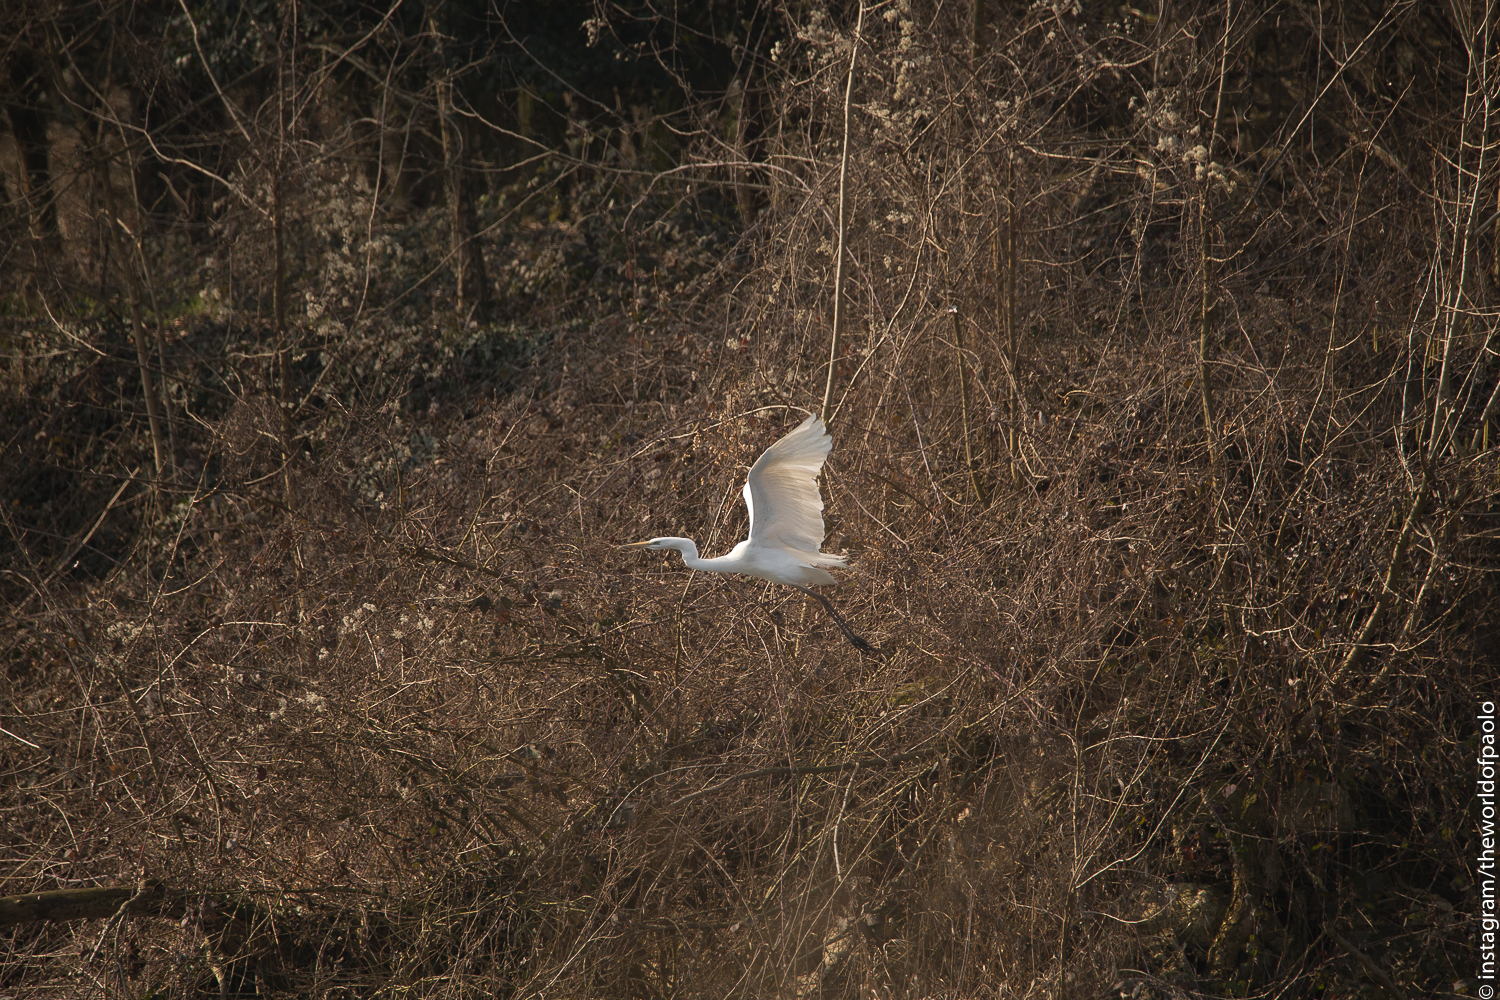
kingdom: Animalia
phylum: Chordata
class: Aves
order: Pelecaniformes
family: Ardeidae
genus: Ardea
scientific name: Ardea alba
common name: Great egret
